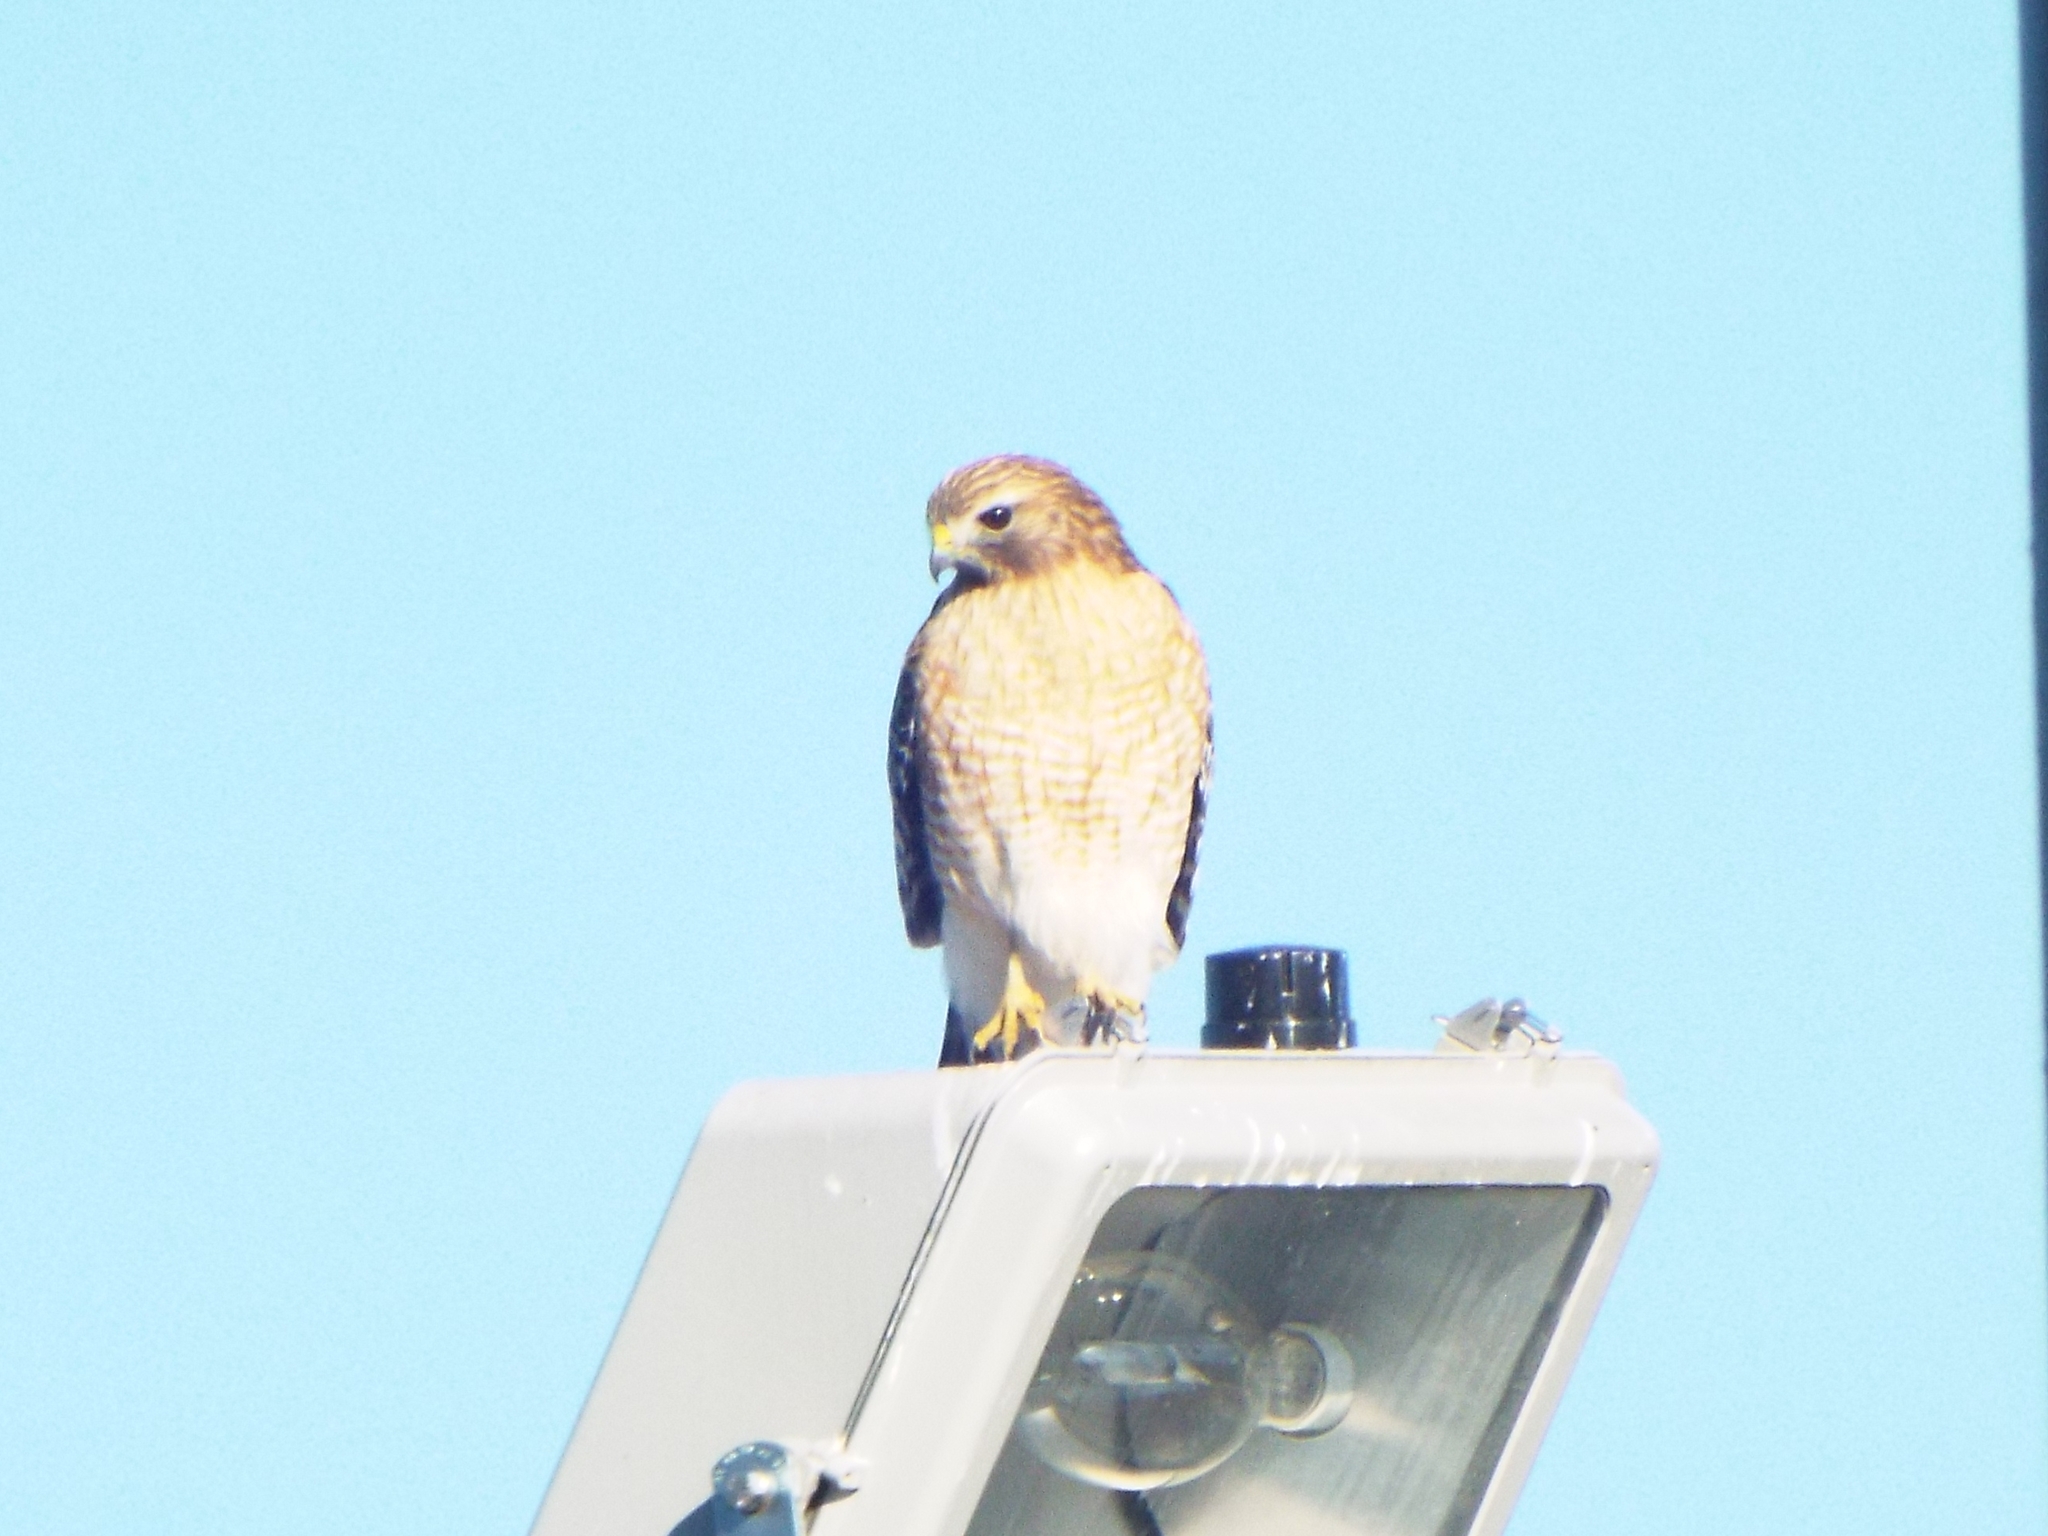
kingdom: Animalia
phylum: Chordata
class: Aves
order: Accipitriformes
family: Accipitridae
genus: Buteo
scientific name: Buteo lineatus
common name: Red-shouldered hawk
